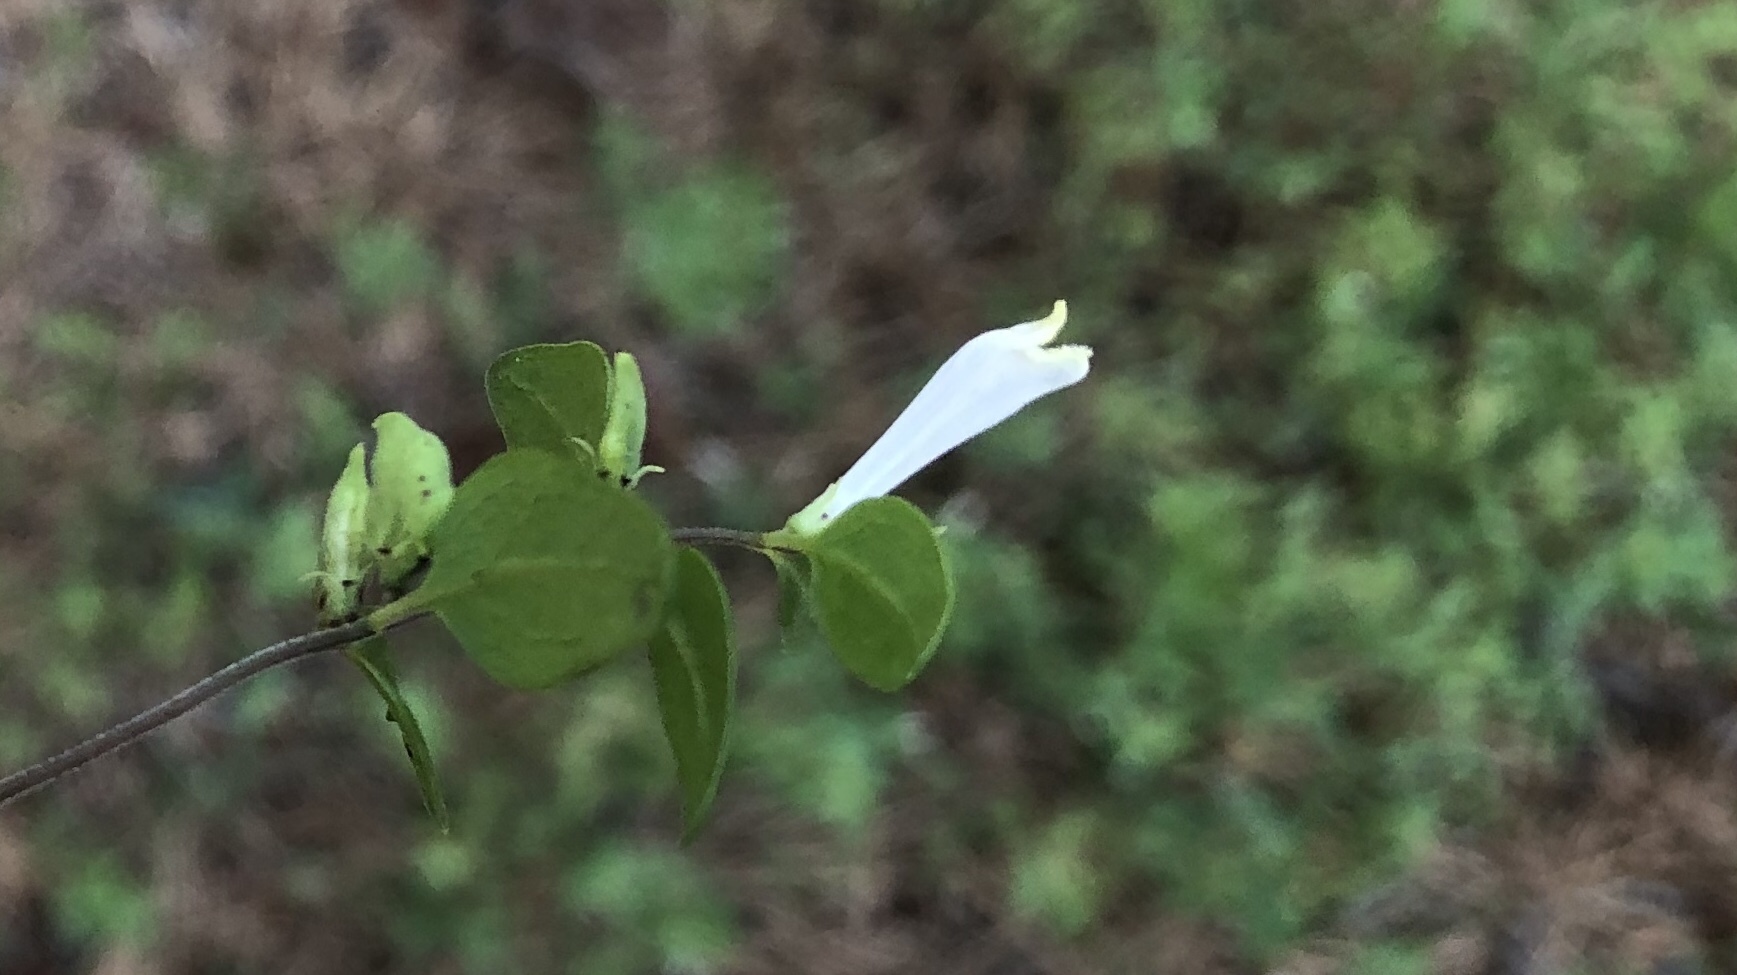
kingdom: Plantae
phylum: Tracheophyta
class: Magnoliopsida
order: Lamiales
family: Orobanchaceae
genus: Melampyrum
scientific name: Melampyrum lineare
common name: American cow-wheat
